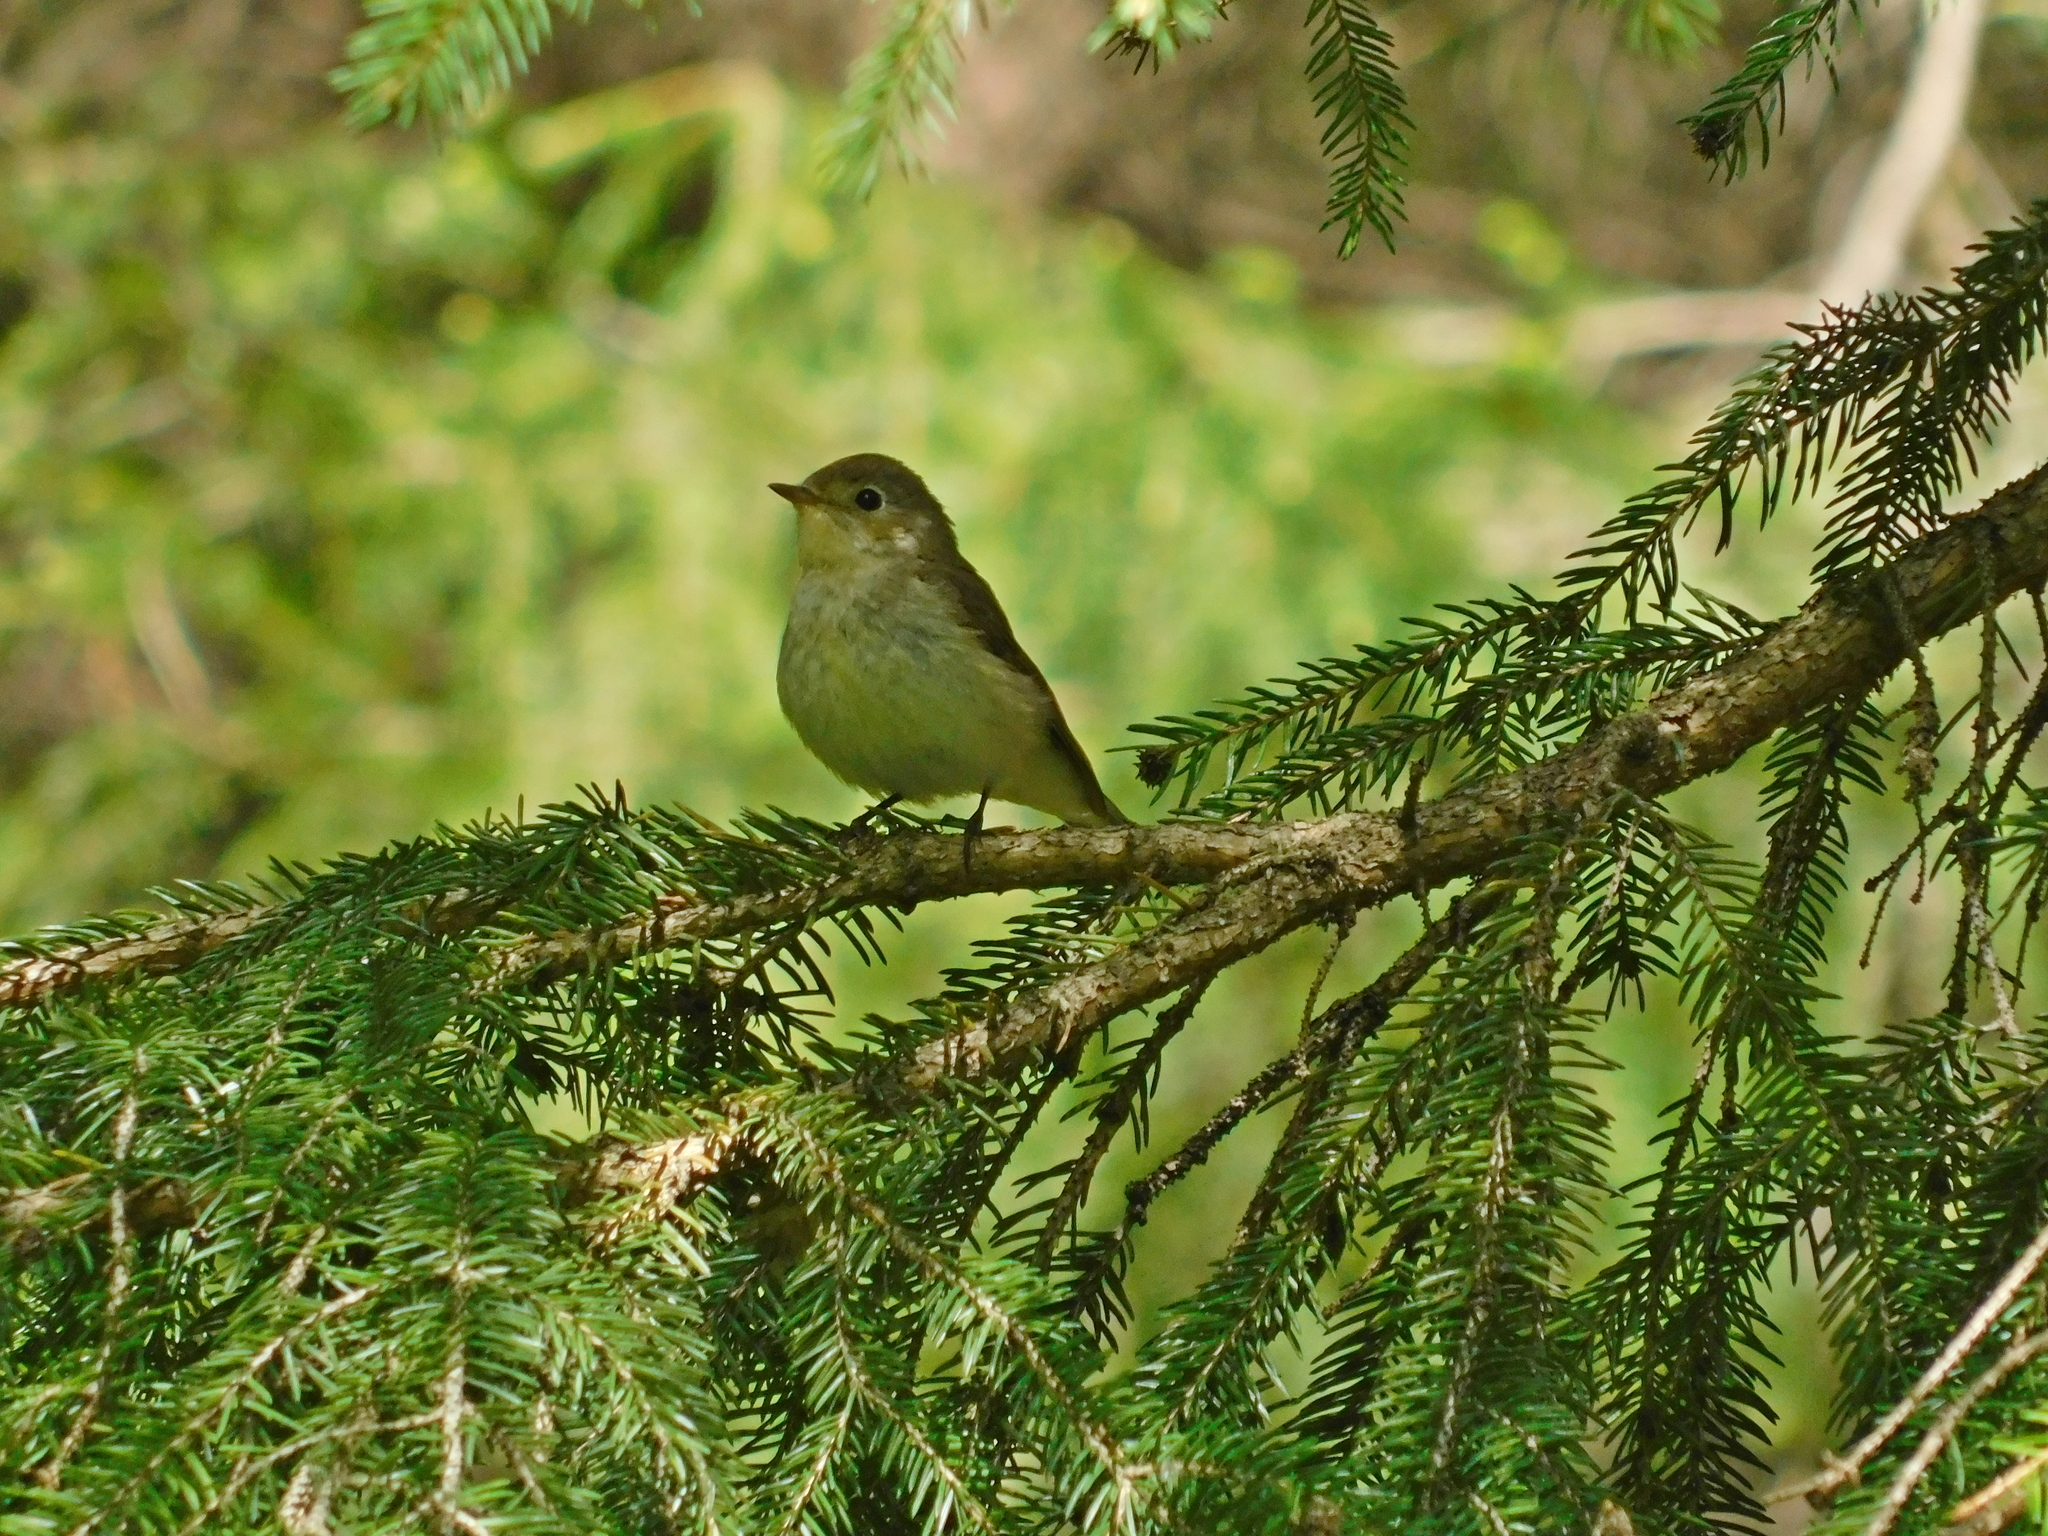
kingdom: Animalia
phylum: Chordata
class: Aves
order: Passeriformes
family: Muscicapidae
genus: Ficedula
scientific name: Ficedula parva
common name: Red-breasted flycatcher
